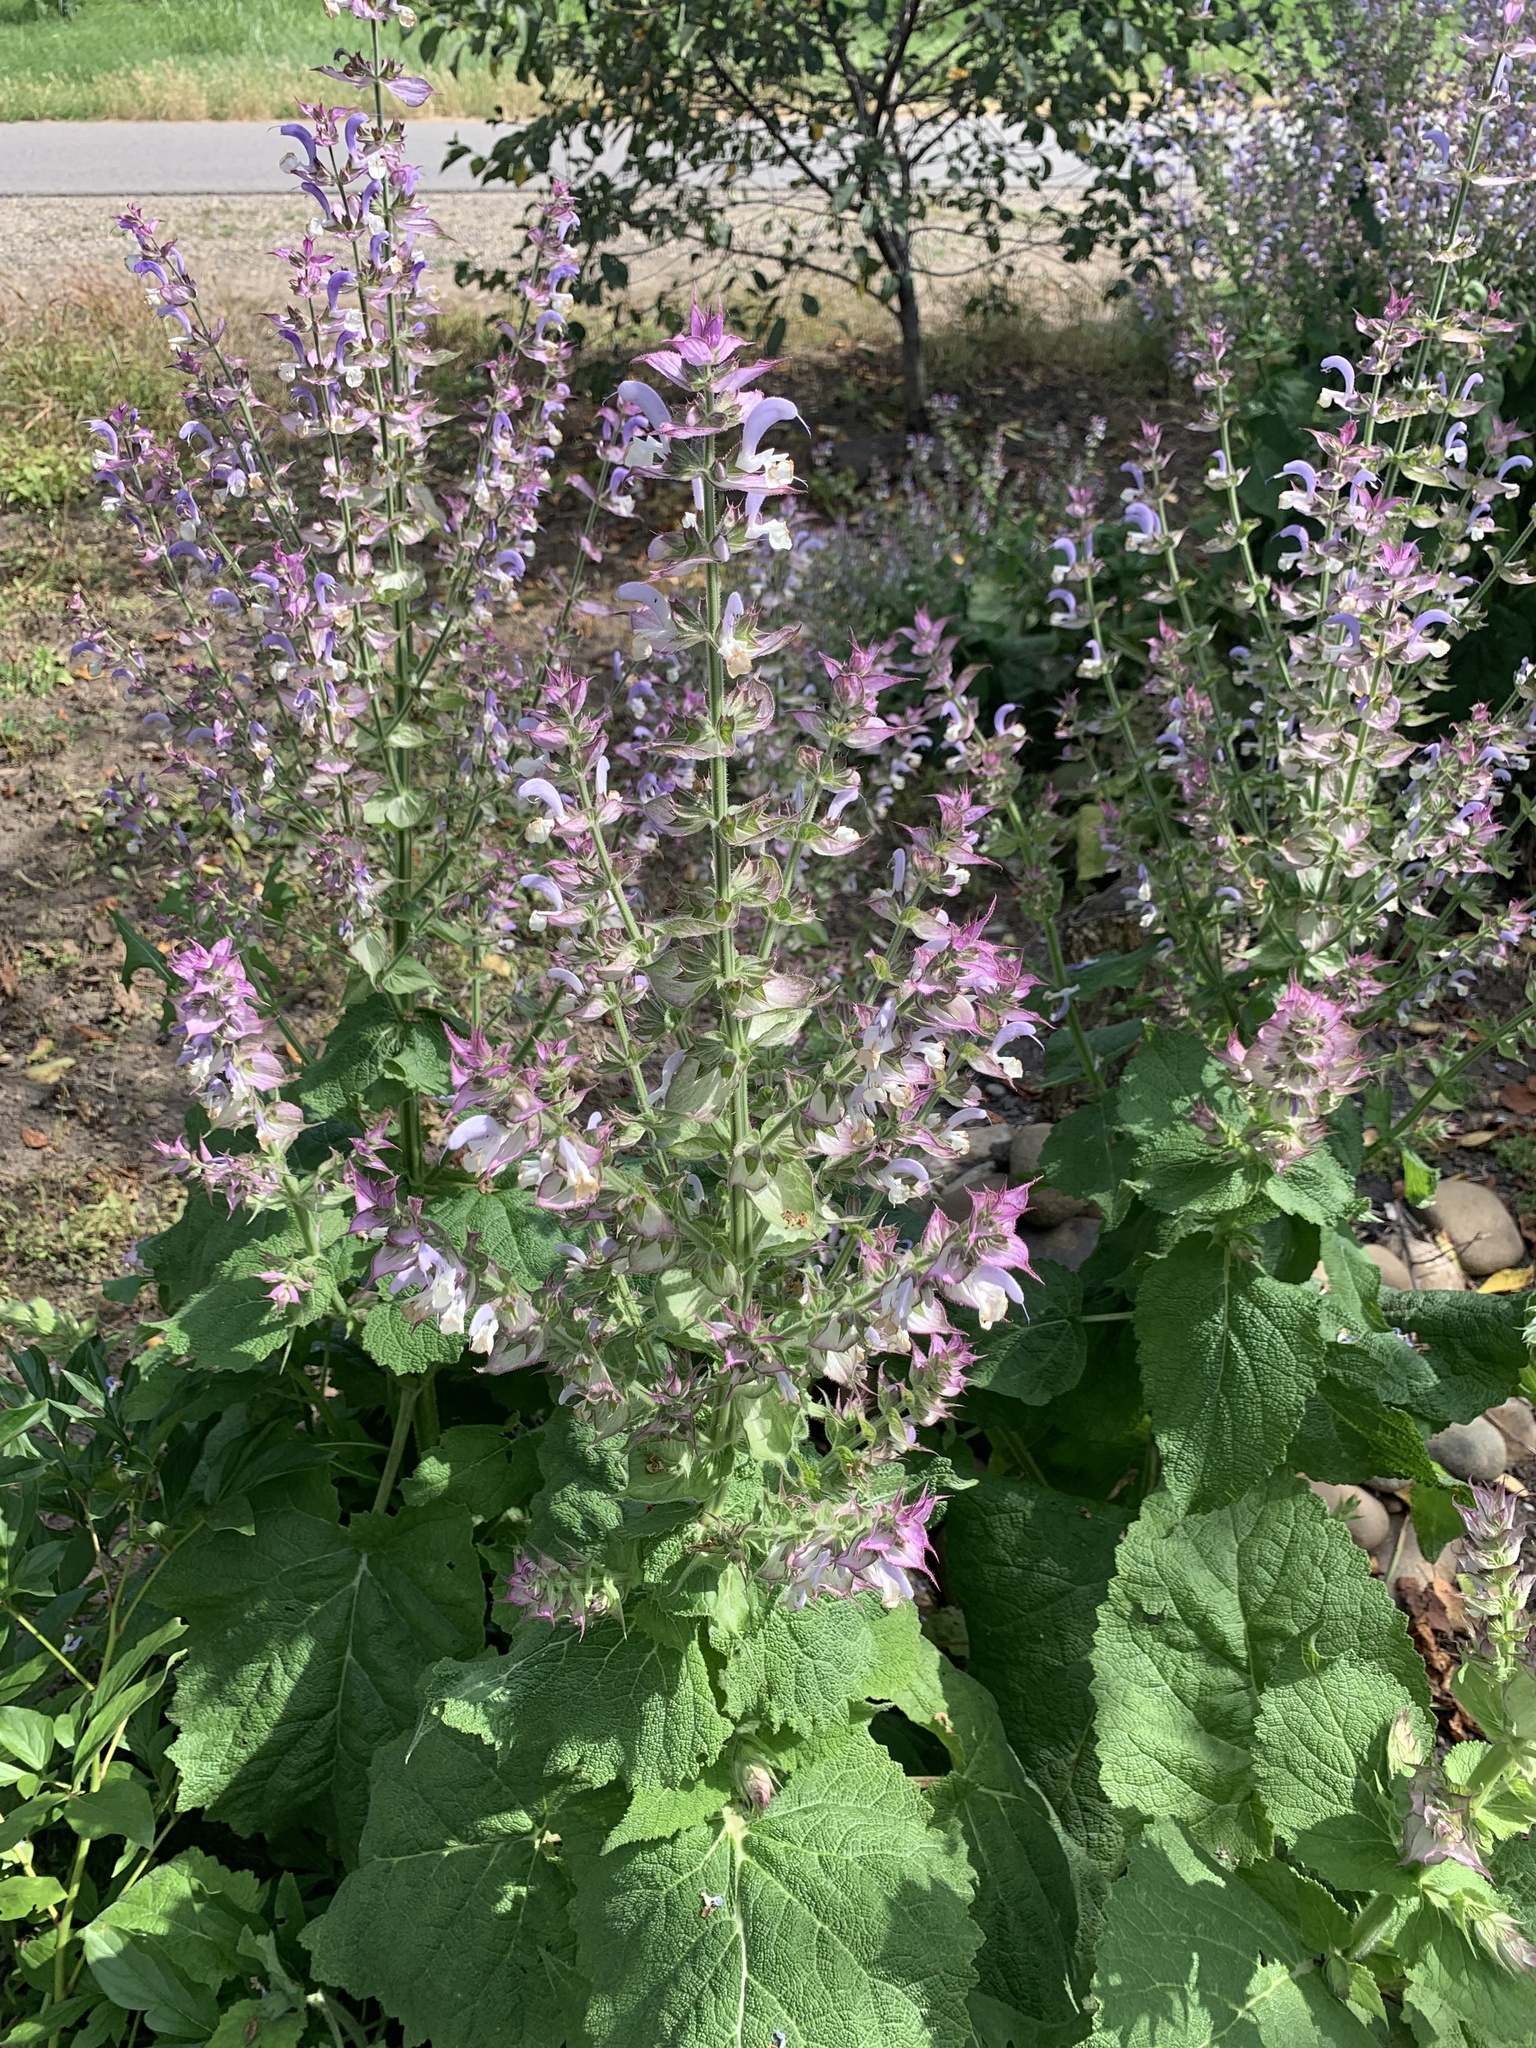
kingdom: Plantae
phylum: Tracheophyta
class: Magnoliopsida
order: Lamiales
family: Lamiaceae
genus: Salvia
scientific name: Salvia sclarea
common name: Clary
